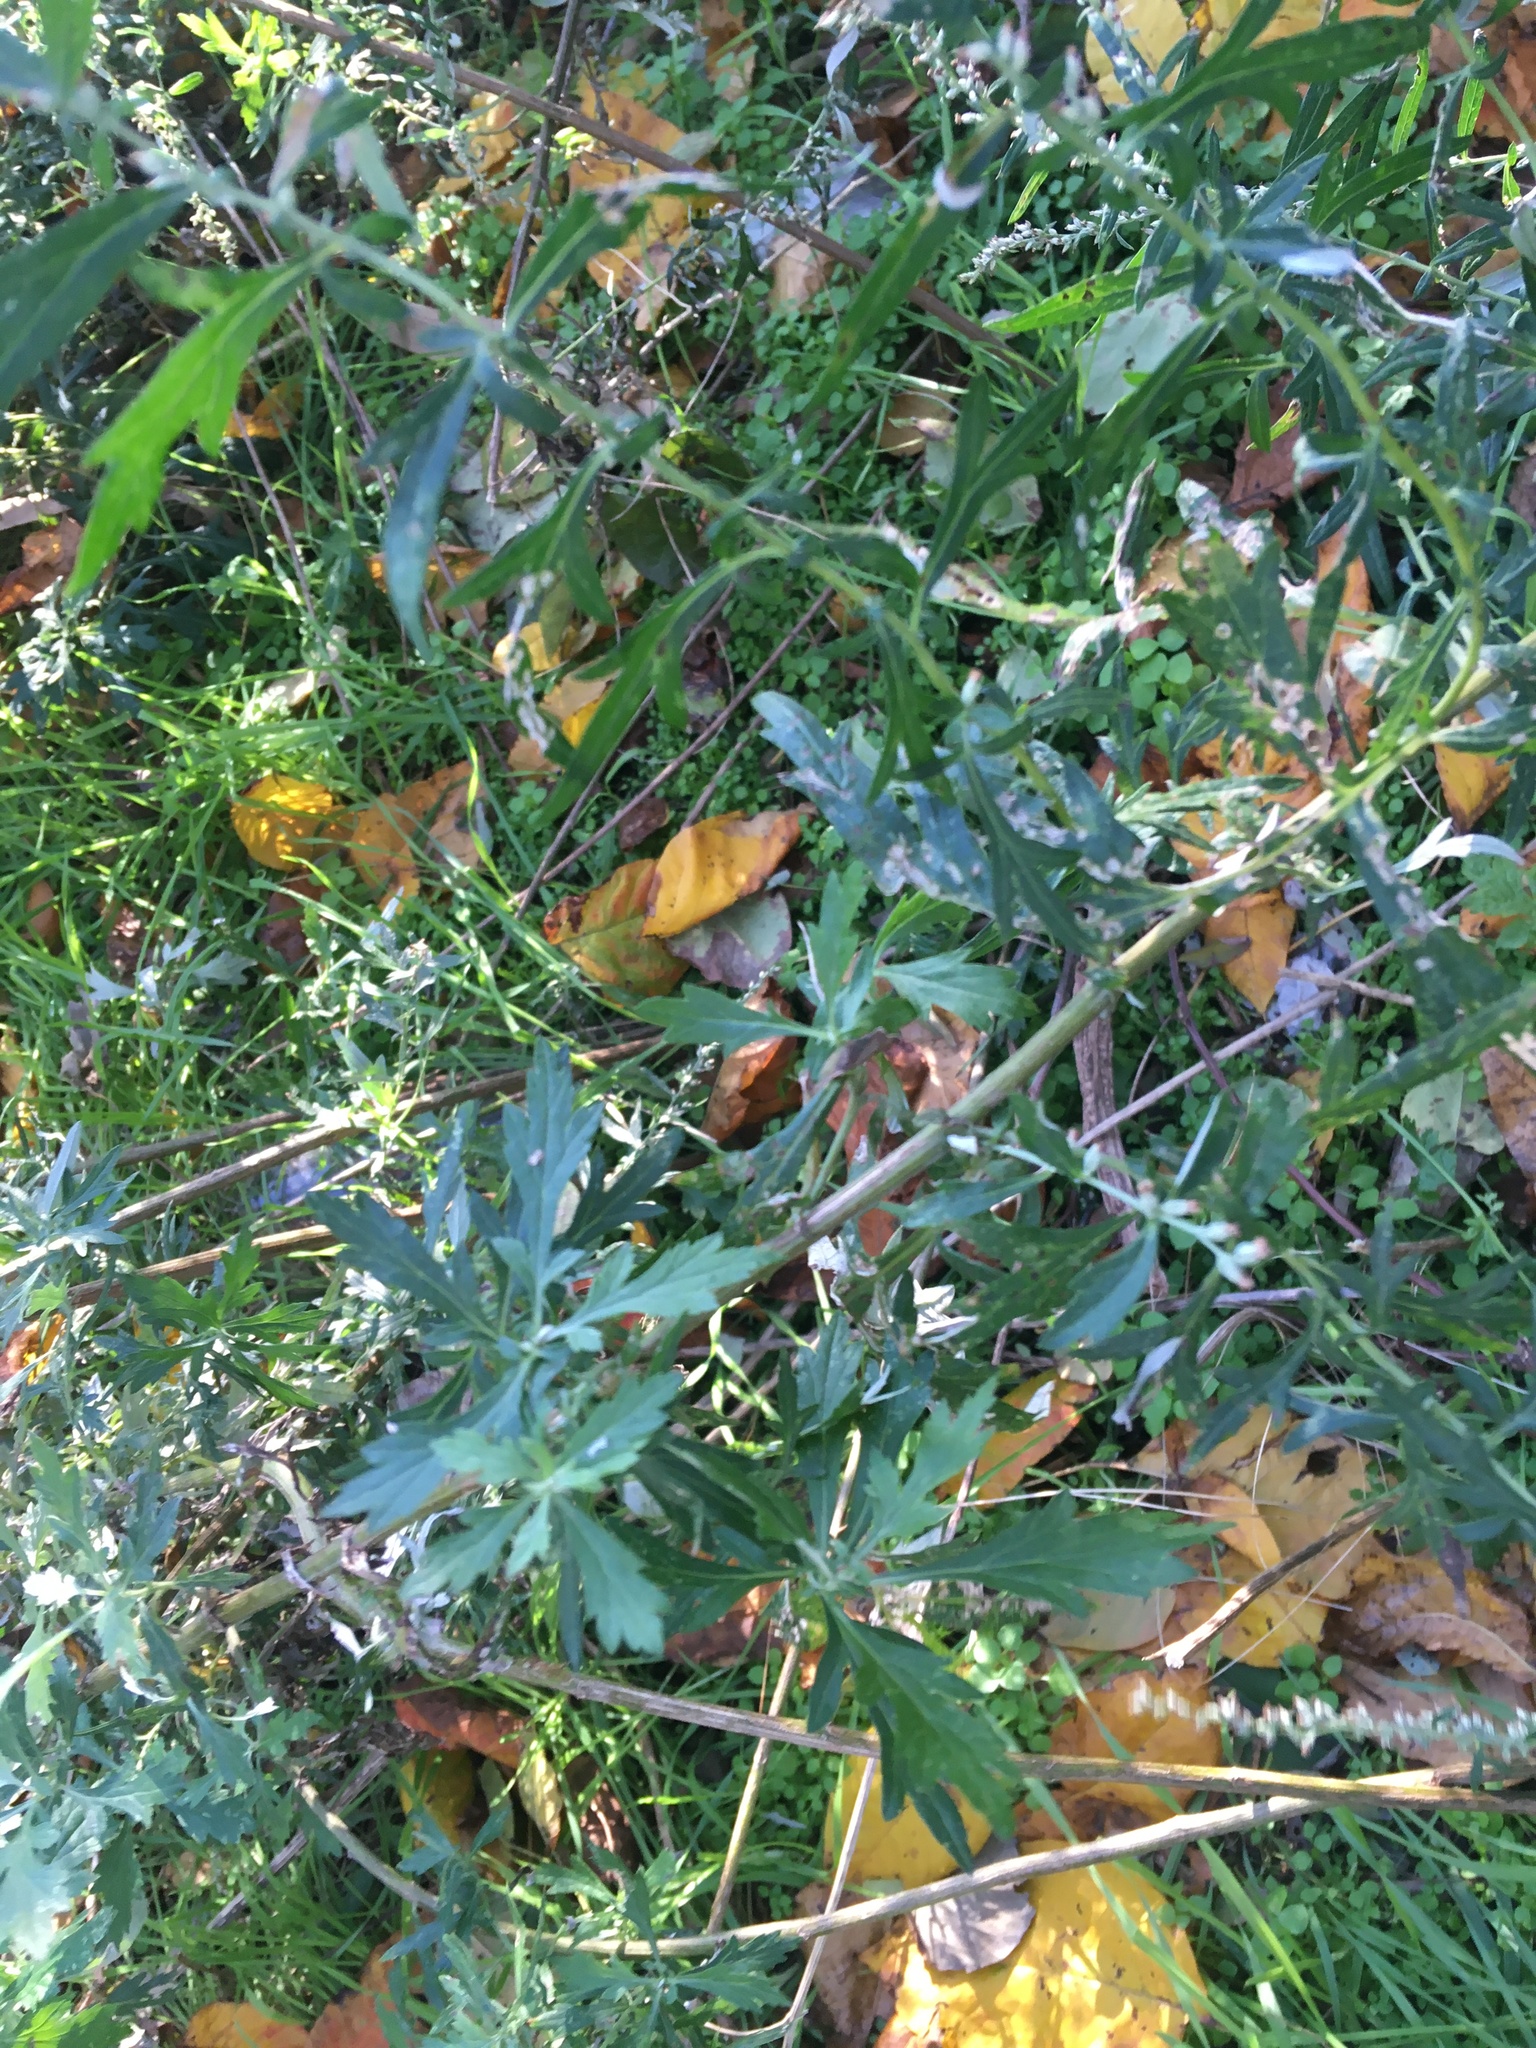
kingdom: Plantae
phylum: Tracheophyta
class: Magnoliopsida
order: Asterales
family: Asteraceae
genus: Artemisia
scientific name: Artemisia vulgaris
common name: Mugwort
